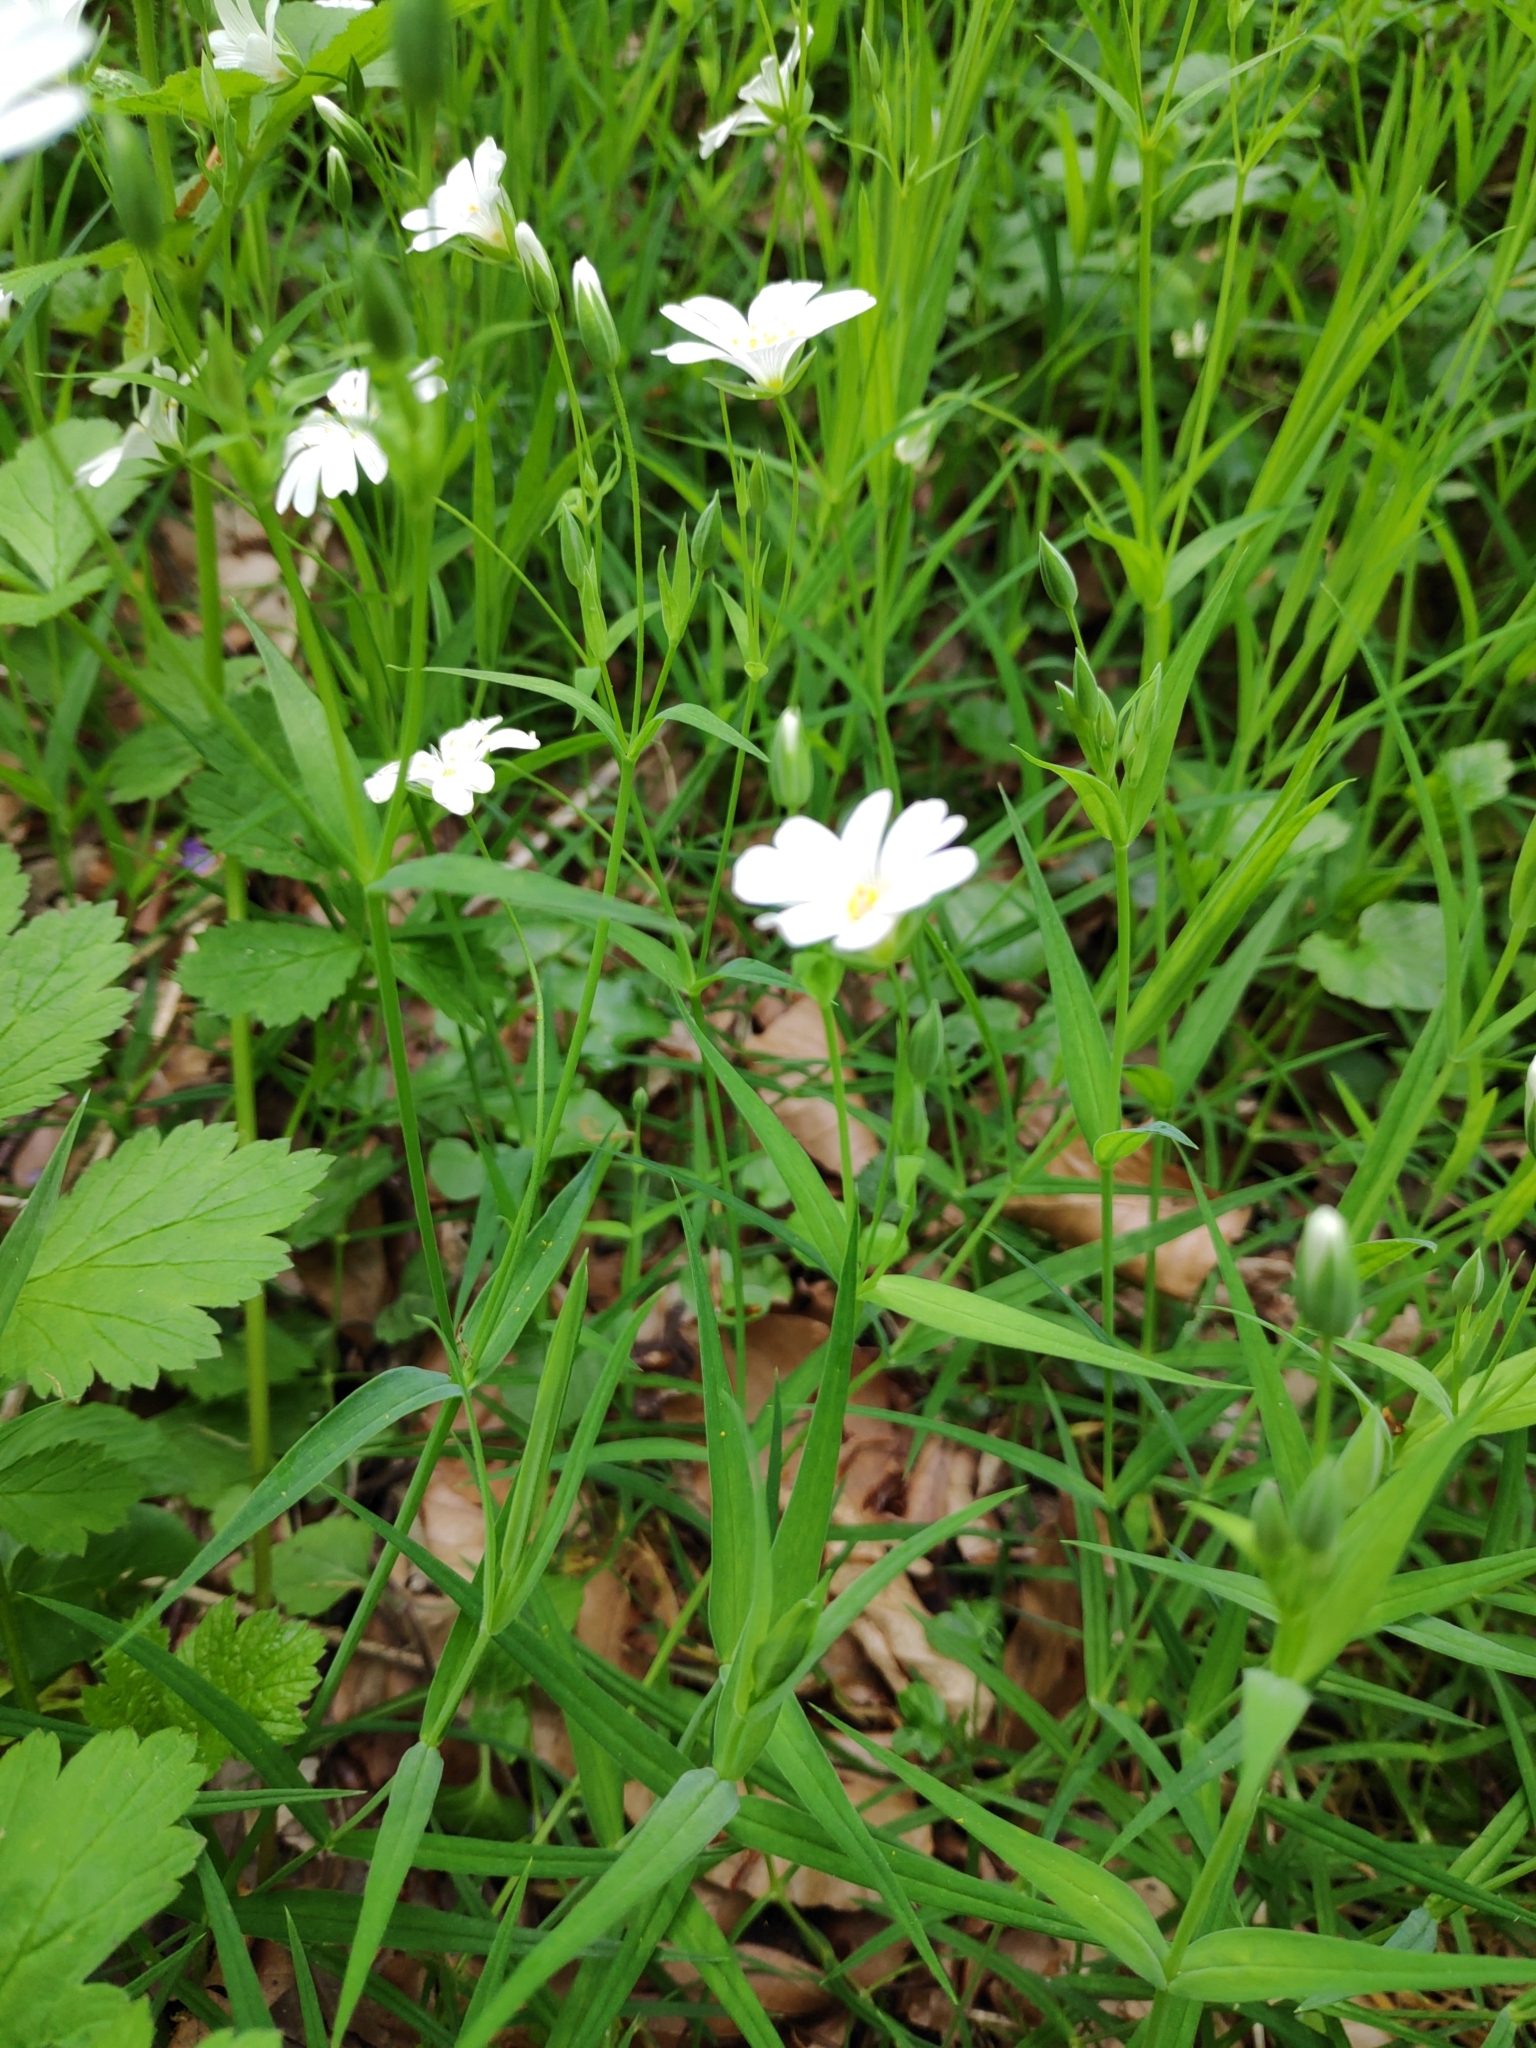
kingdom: Plantae
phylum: Tracheophyta
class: Magnoliopsida
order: Caryophyllales
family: Caryophyllaceae
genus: Rabelera
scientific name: Rabelera holostea
